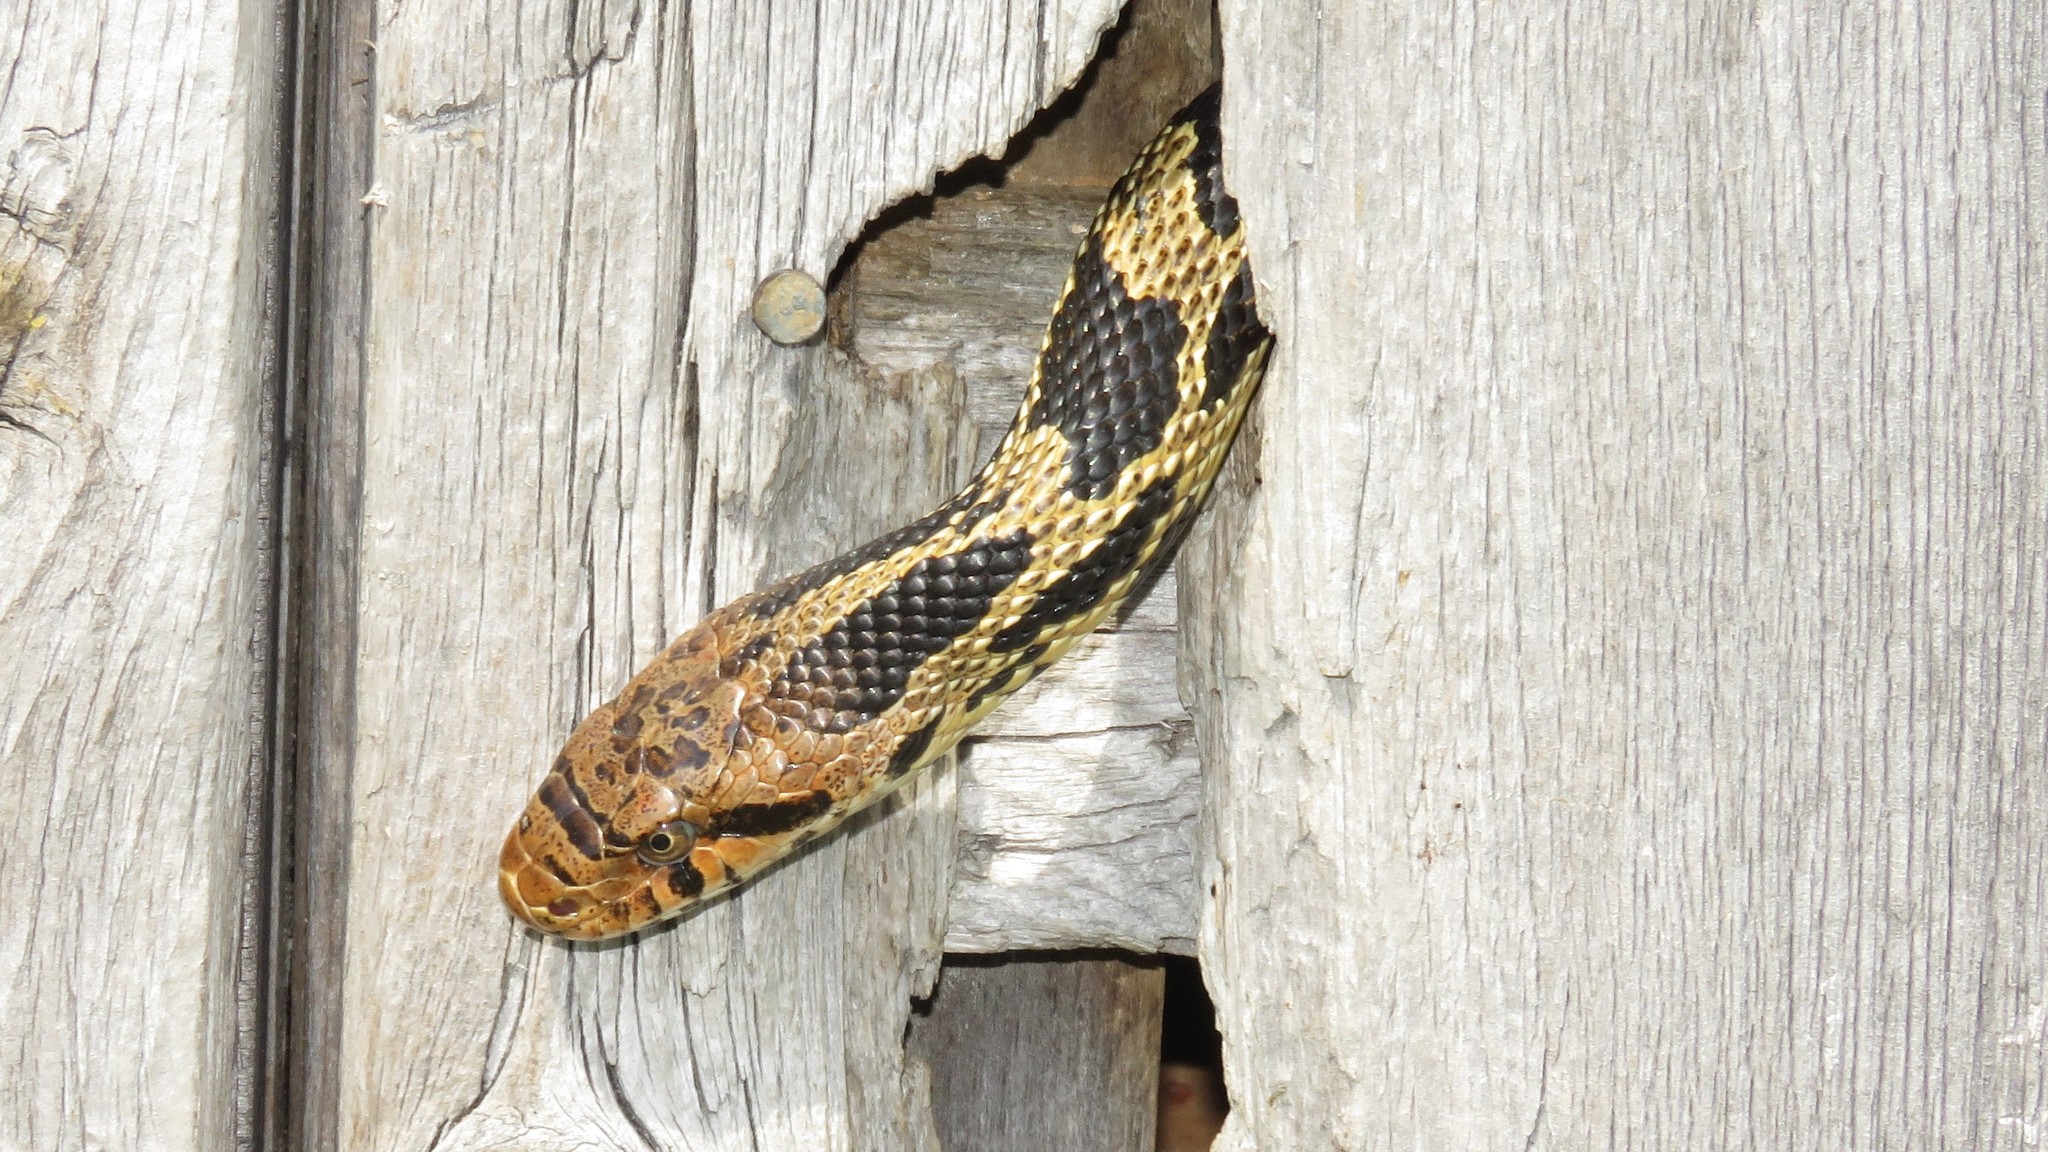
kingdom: Animalia
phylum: Chordata
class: Squamata
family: Colubridae
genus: Pantherophis
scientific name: Pantherophis vulpinus
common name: Eastern fox snake
